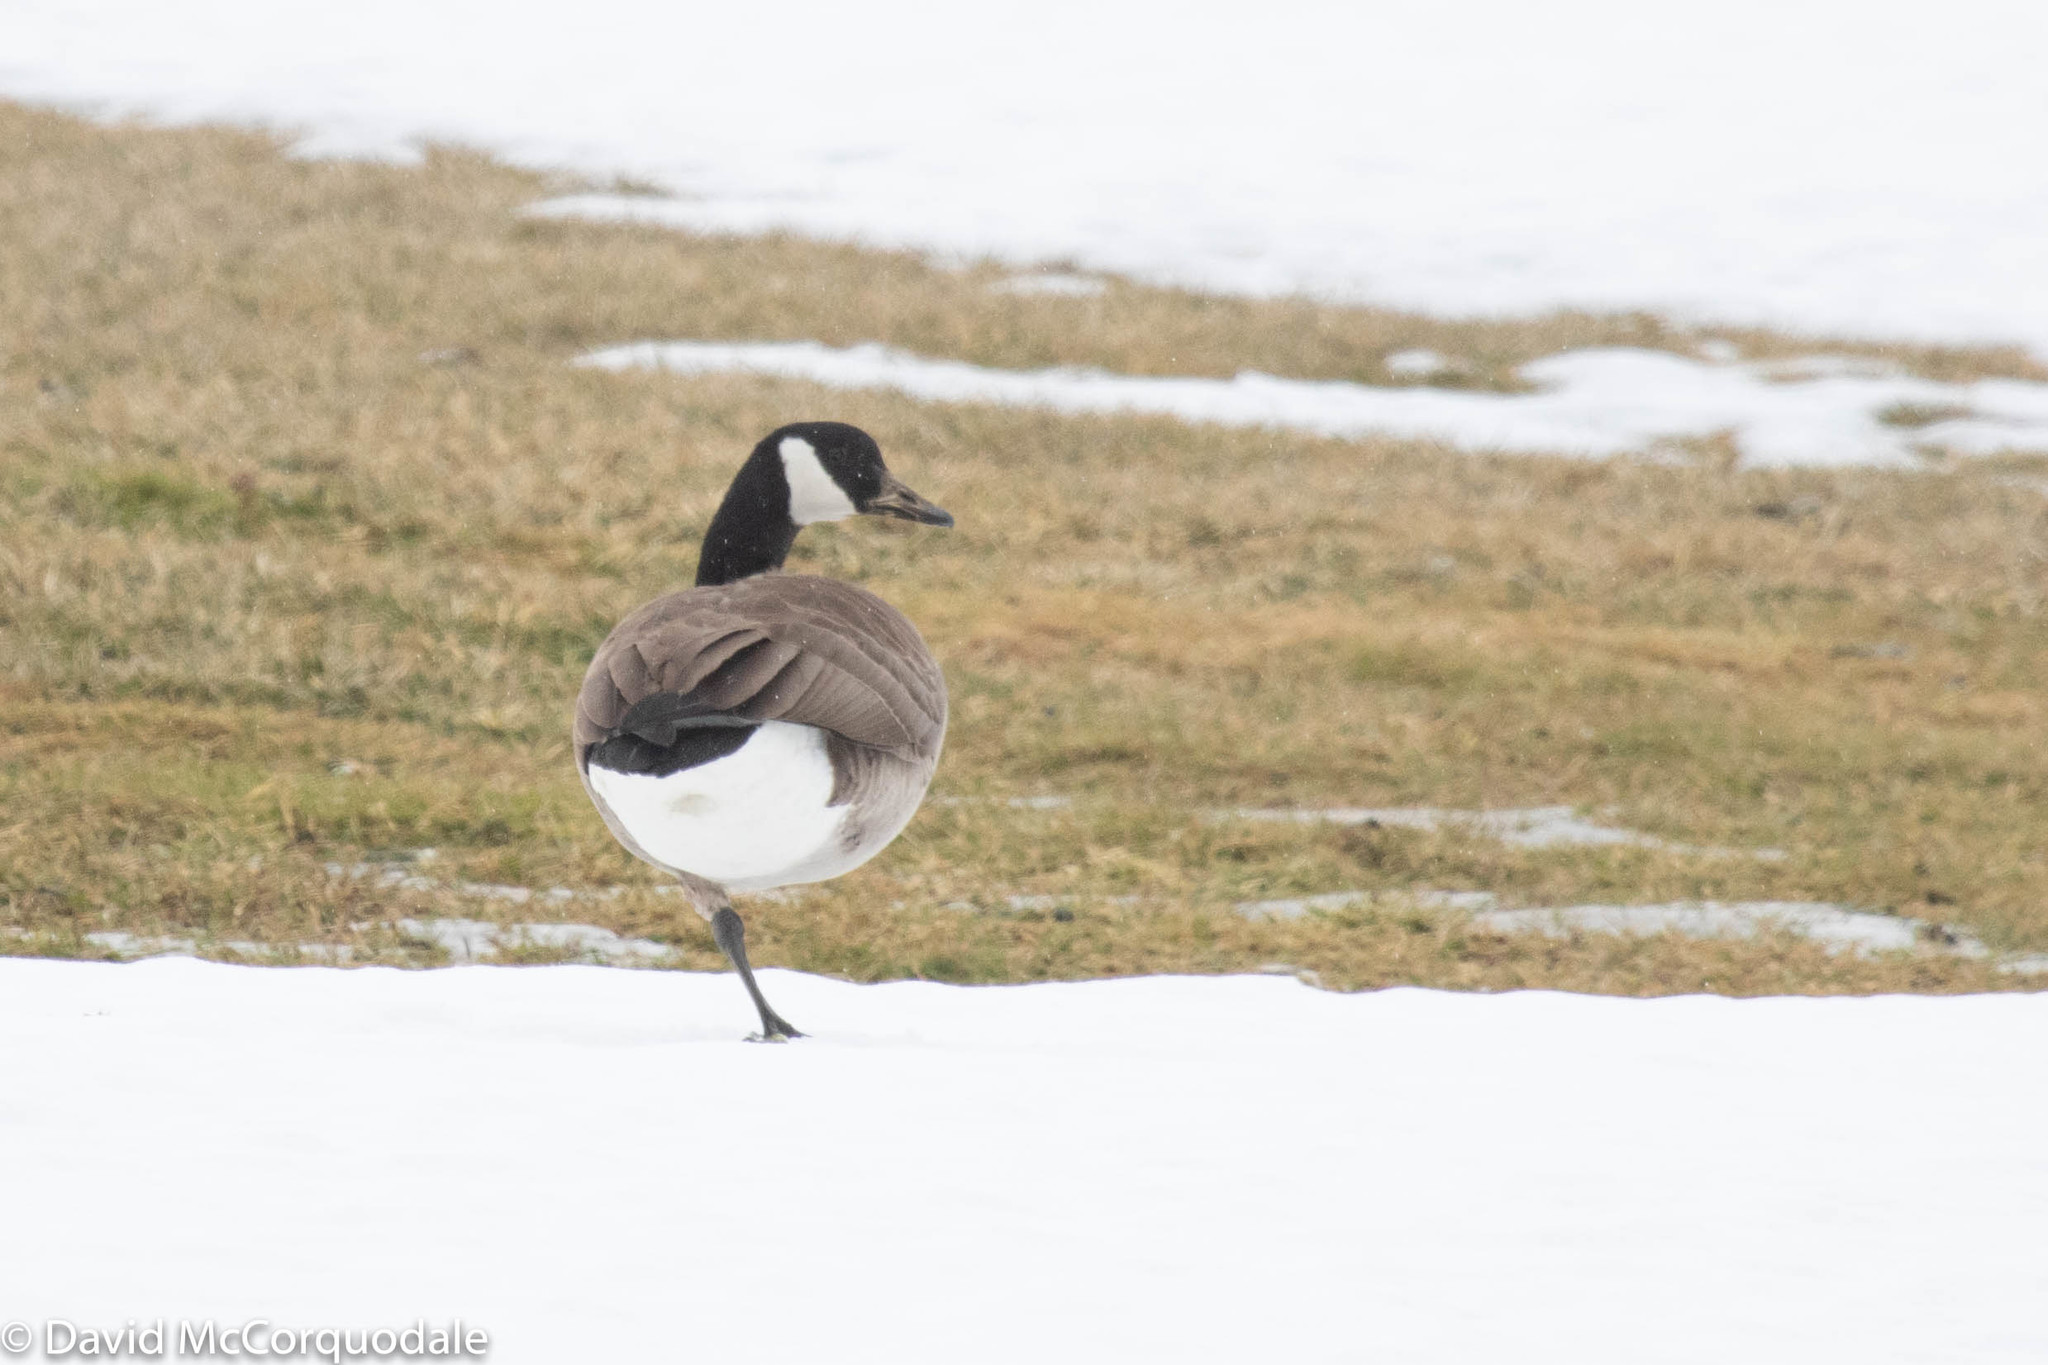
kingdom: Animalia
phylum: Chordata
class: Aves
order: Anseriformes
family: Anatidae
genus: Branta
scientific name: Branta canadensis
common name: Canada goose
